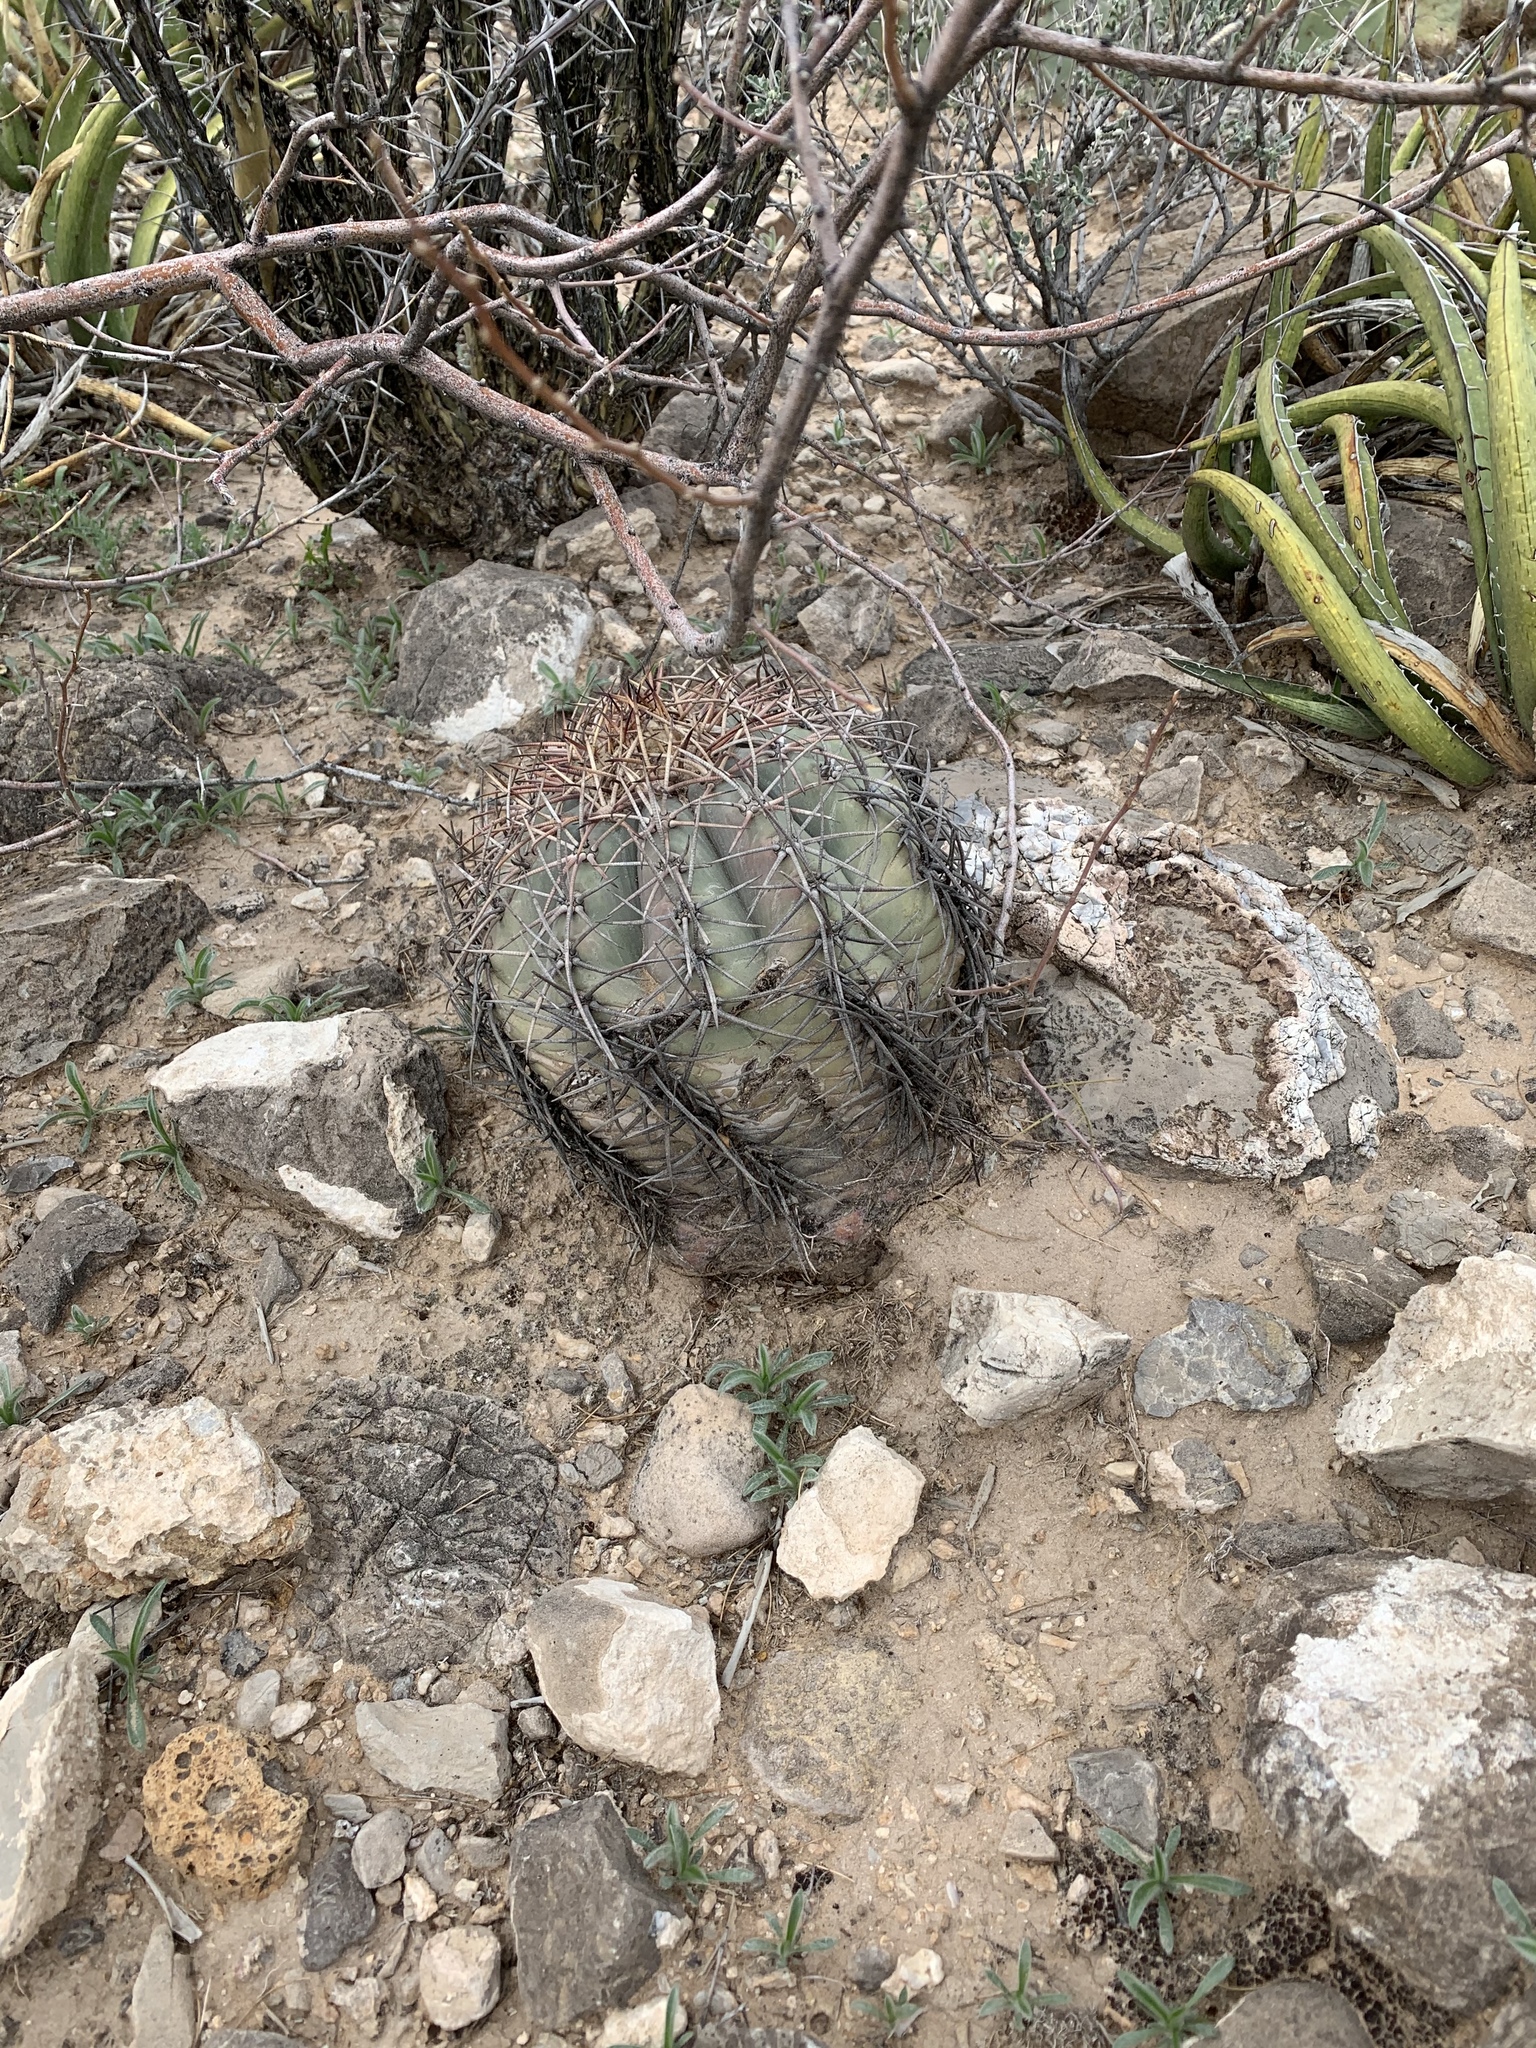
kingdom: Plantae
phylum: Tracheophyta
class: Magnoliopsida
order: Caryophyllales
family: Cactaceae
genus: Echinocactus
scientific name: Echinocactus horizonthalonius
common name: Devilshead
